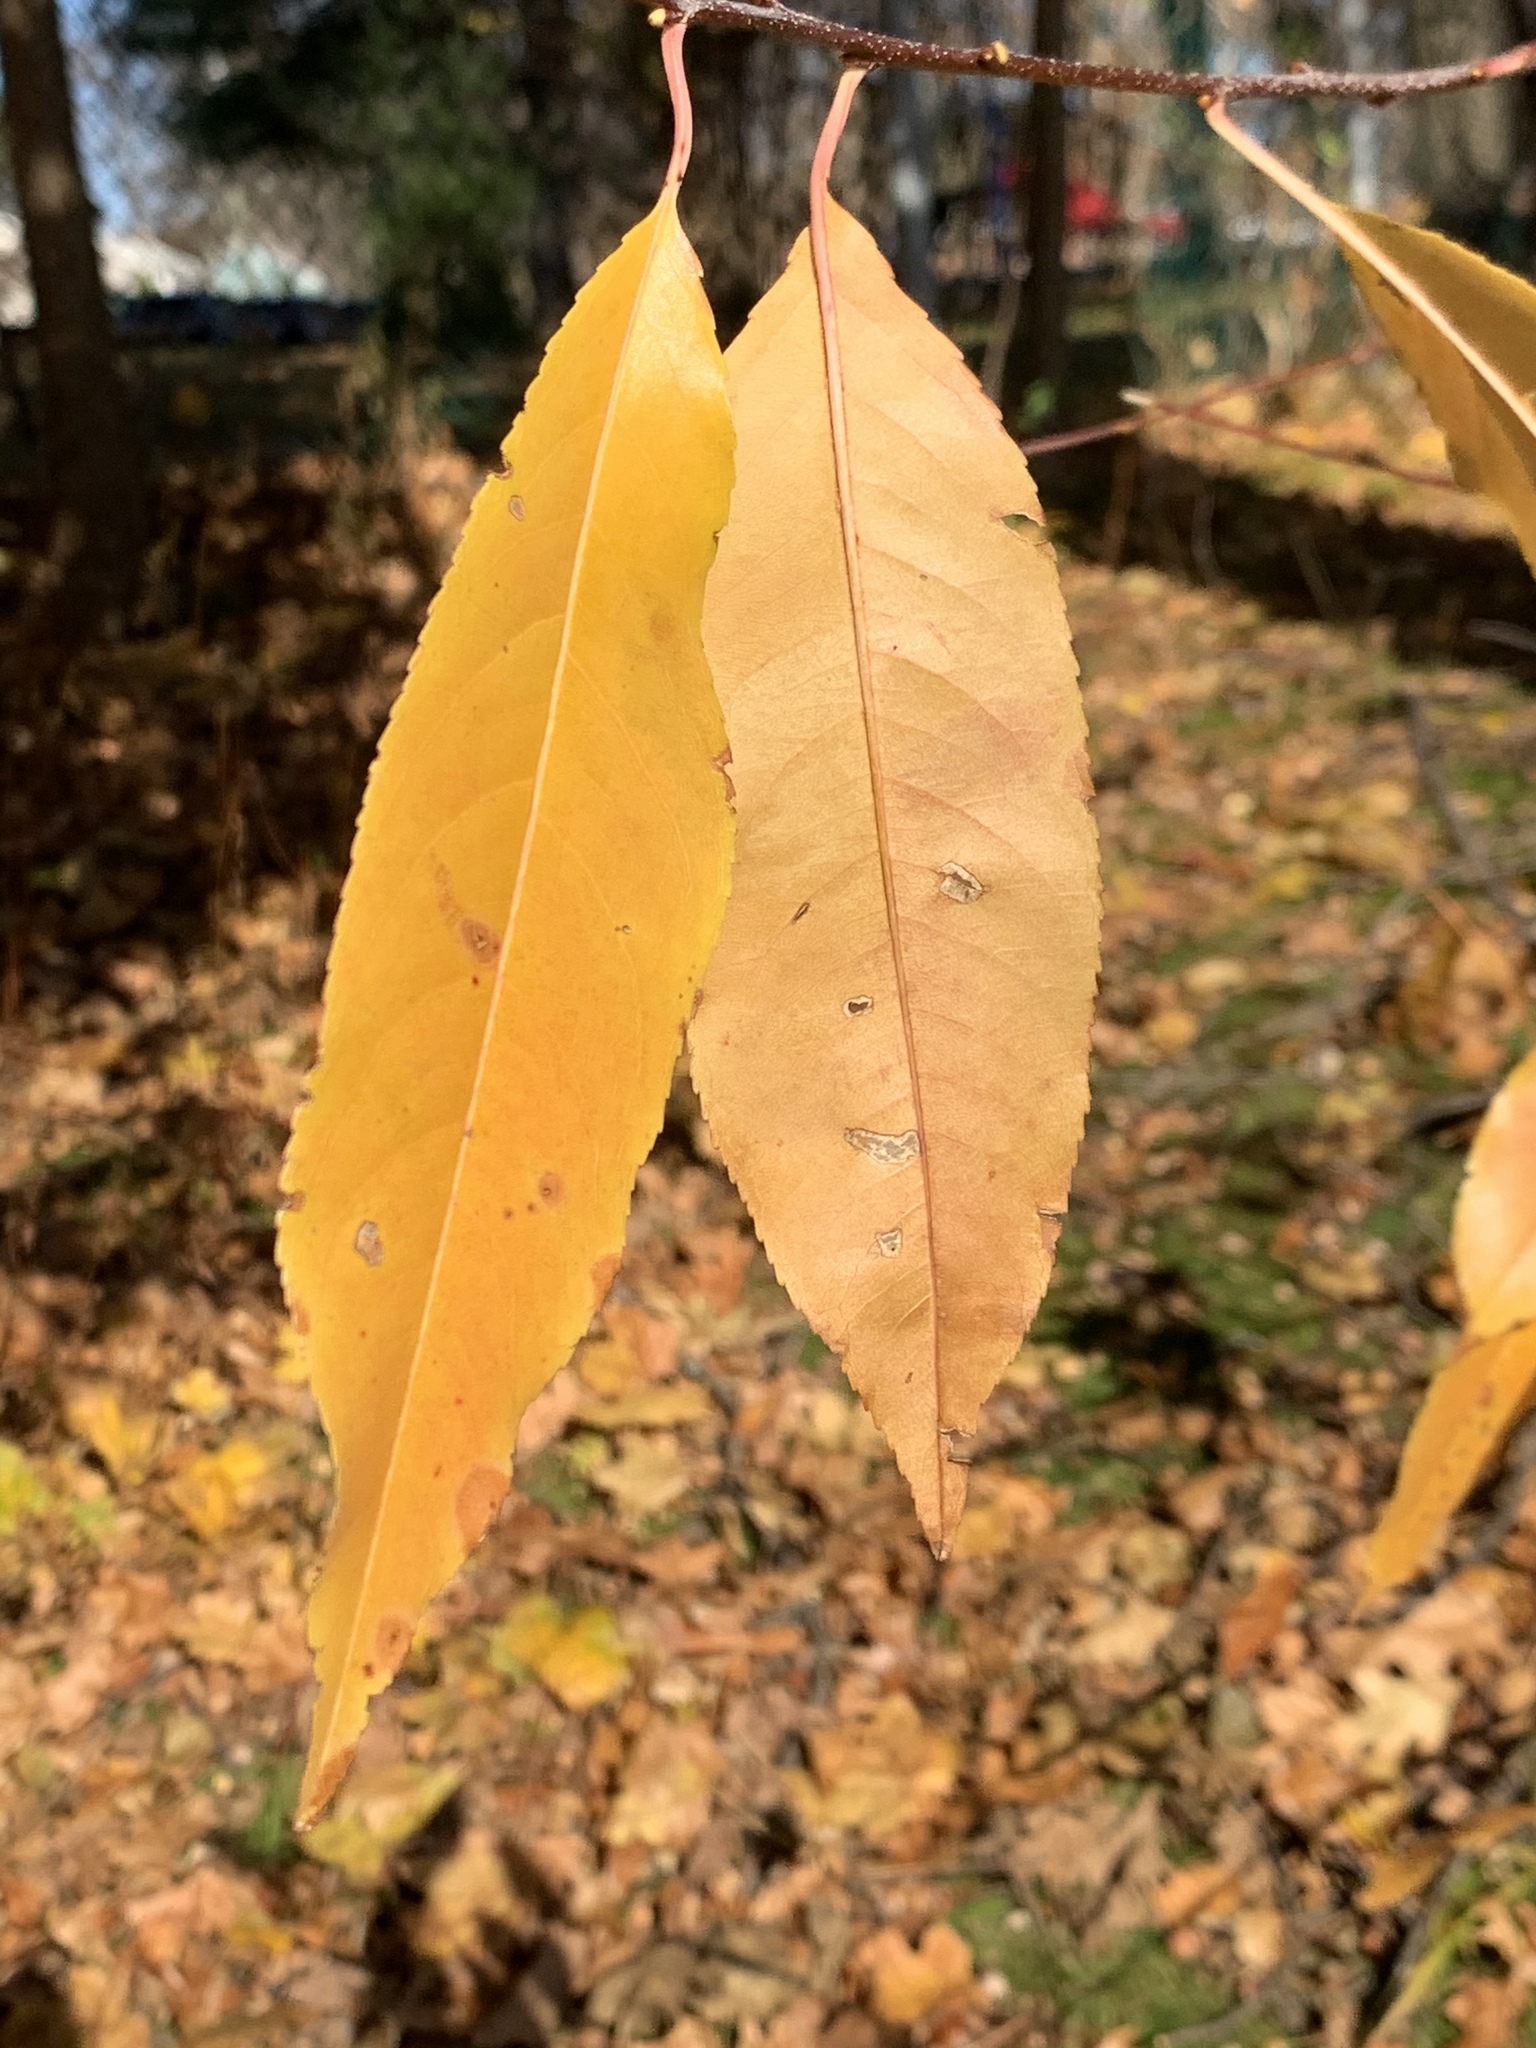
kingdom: Plantae
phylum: Tracheophyta
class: Magnoliopsida
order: Rosales
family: Rosaceae
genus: Prunus
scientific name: Prunus serotina
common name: Black cherry
